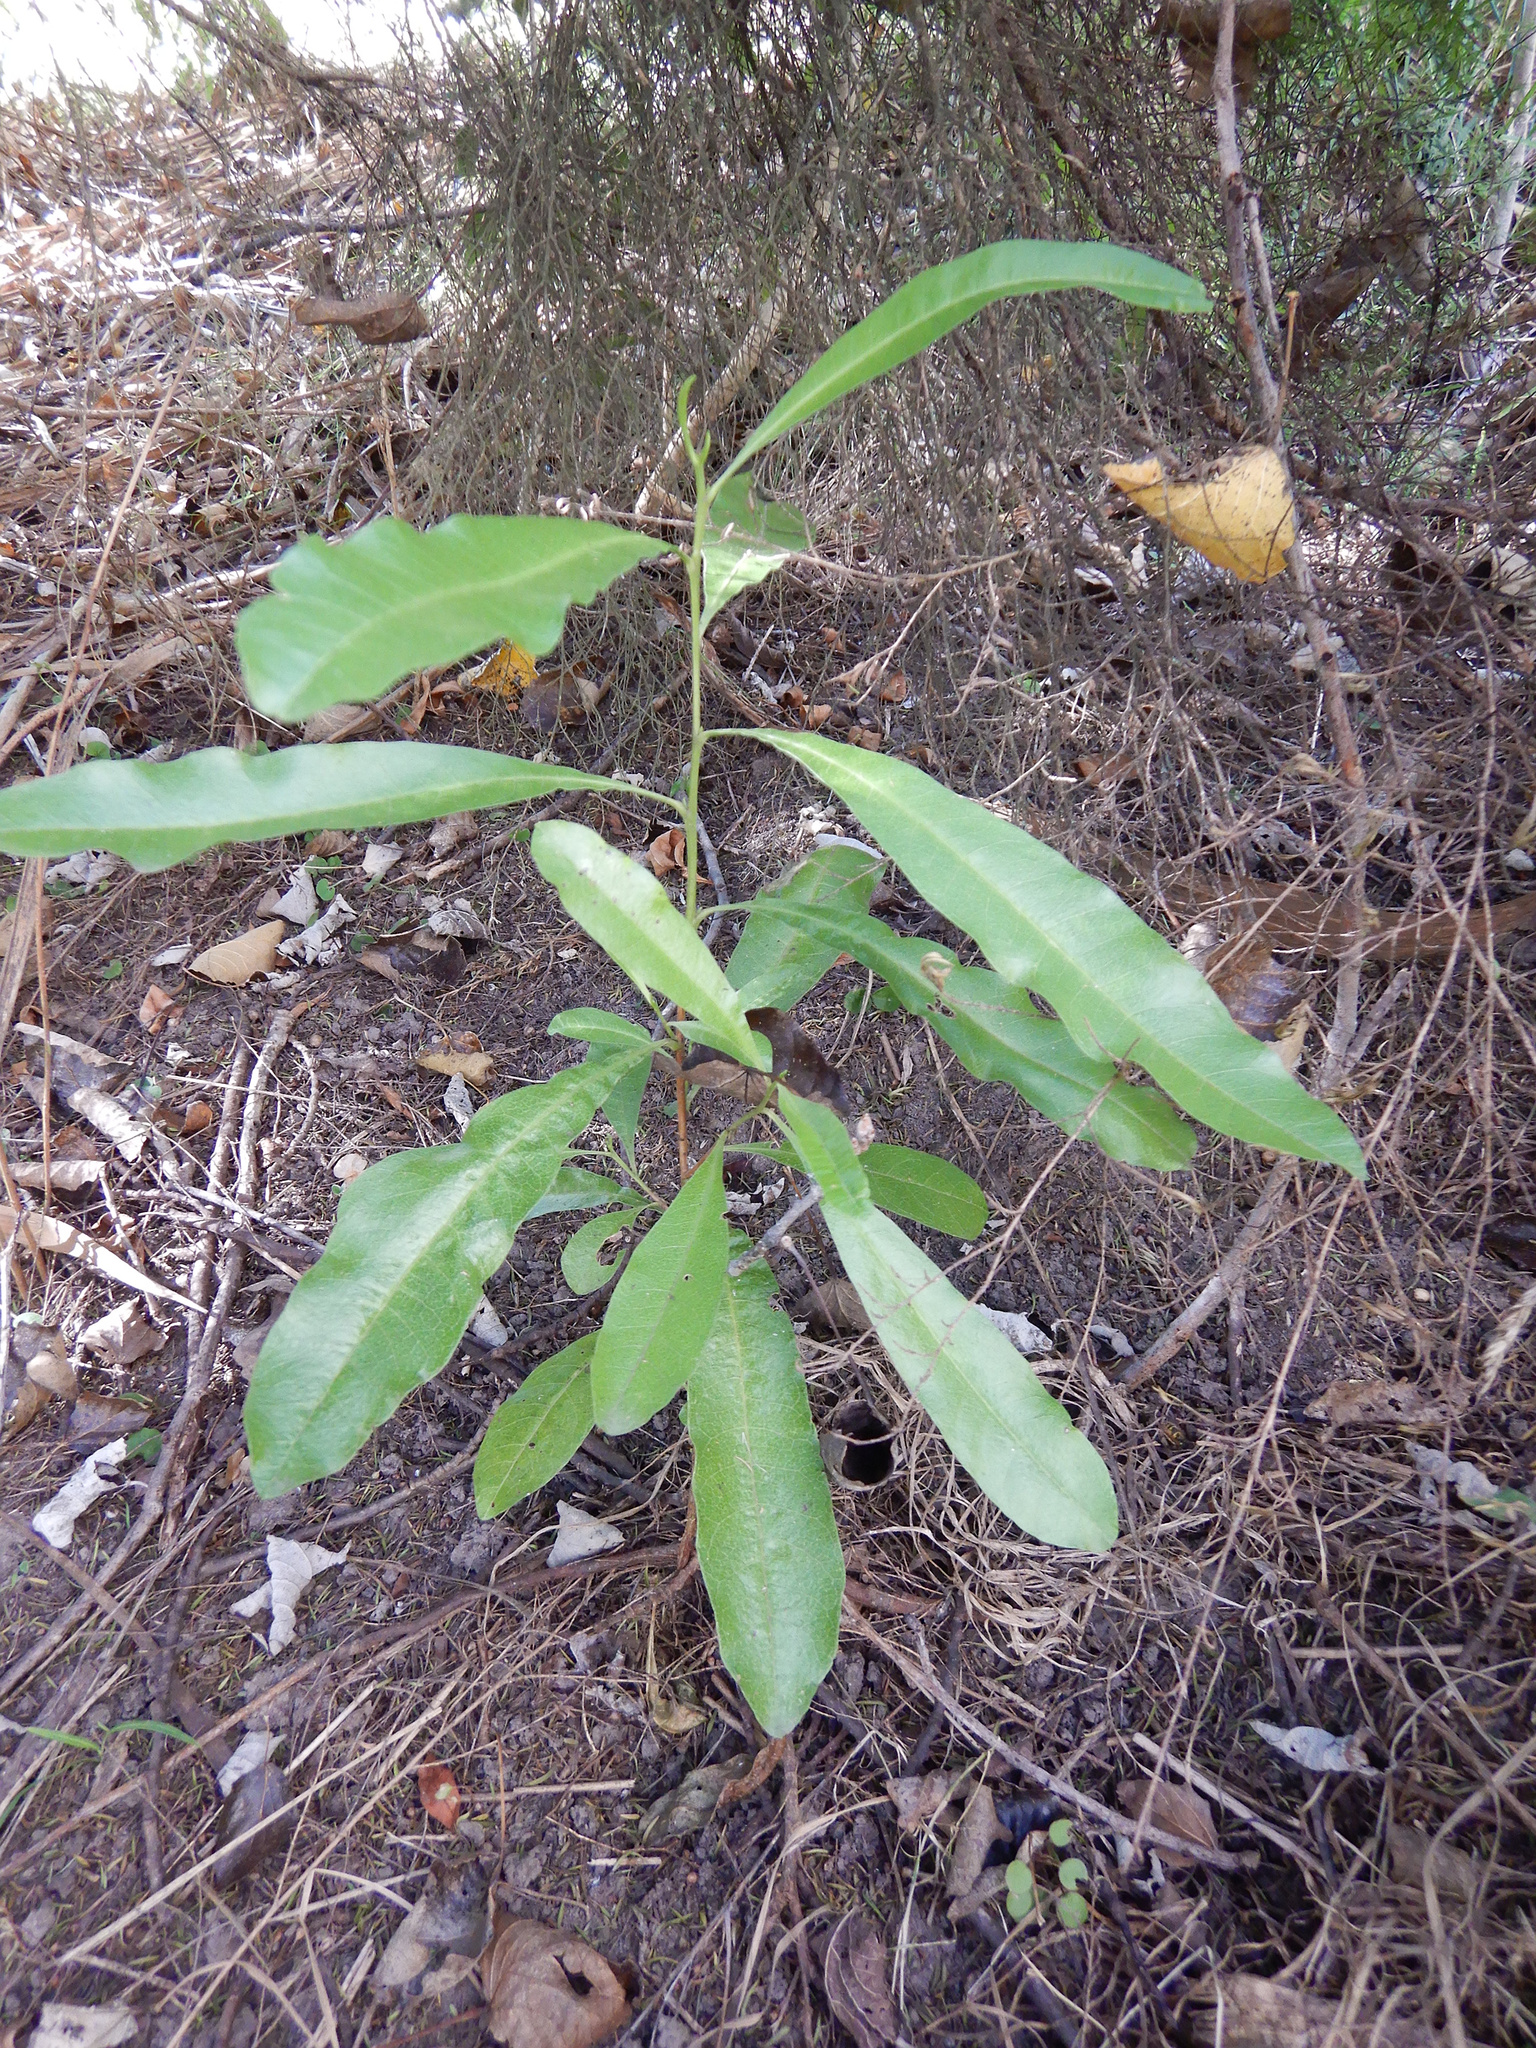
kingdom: Plantae
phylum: Tracheophyta
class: Magnoliopsida
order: Sapindales
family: Sapindaceae
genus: Dodonaea
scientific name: Dodonaea viscosa
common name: Hopbush
